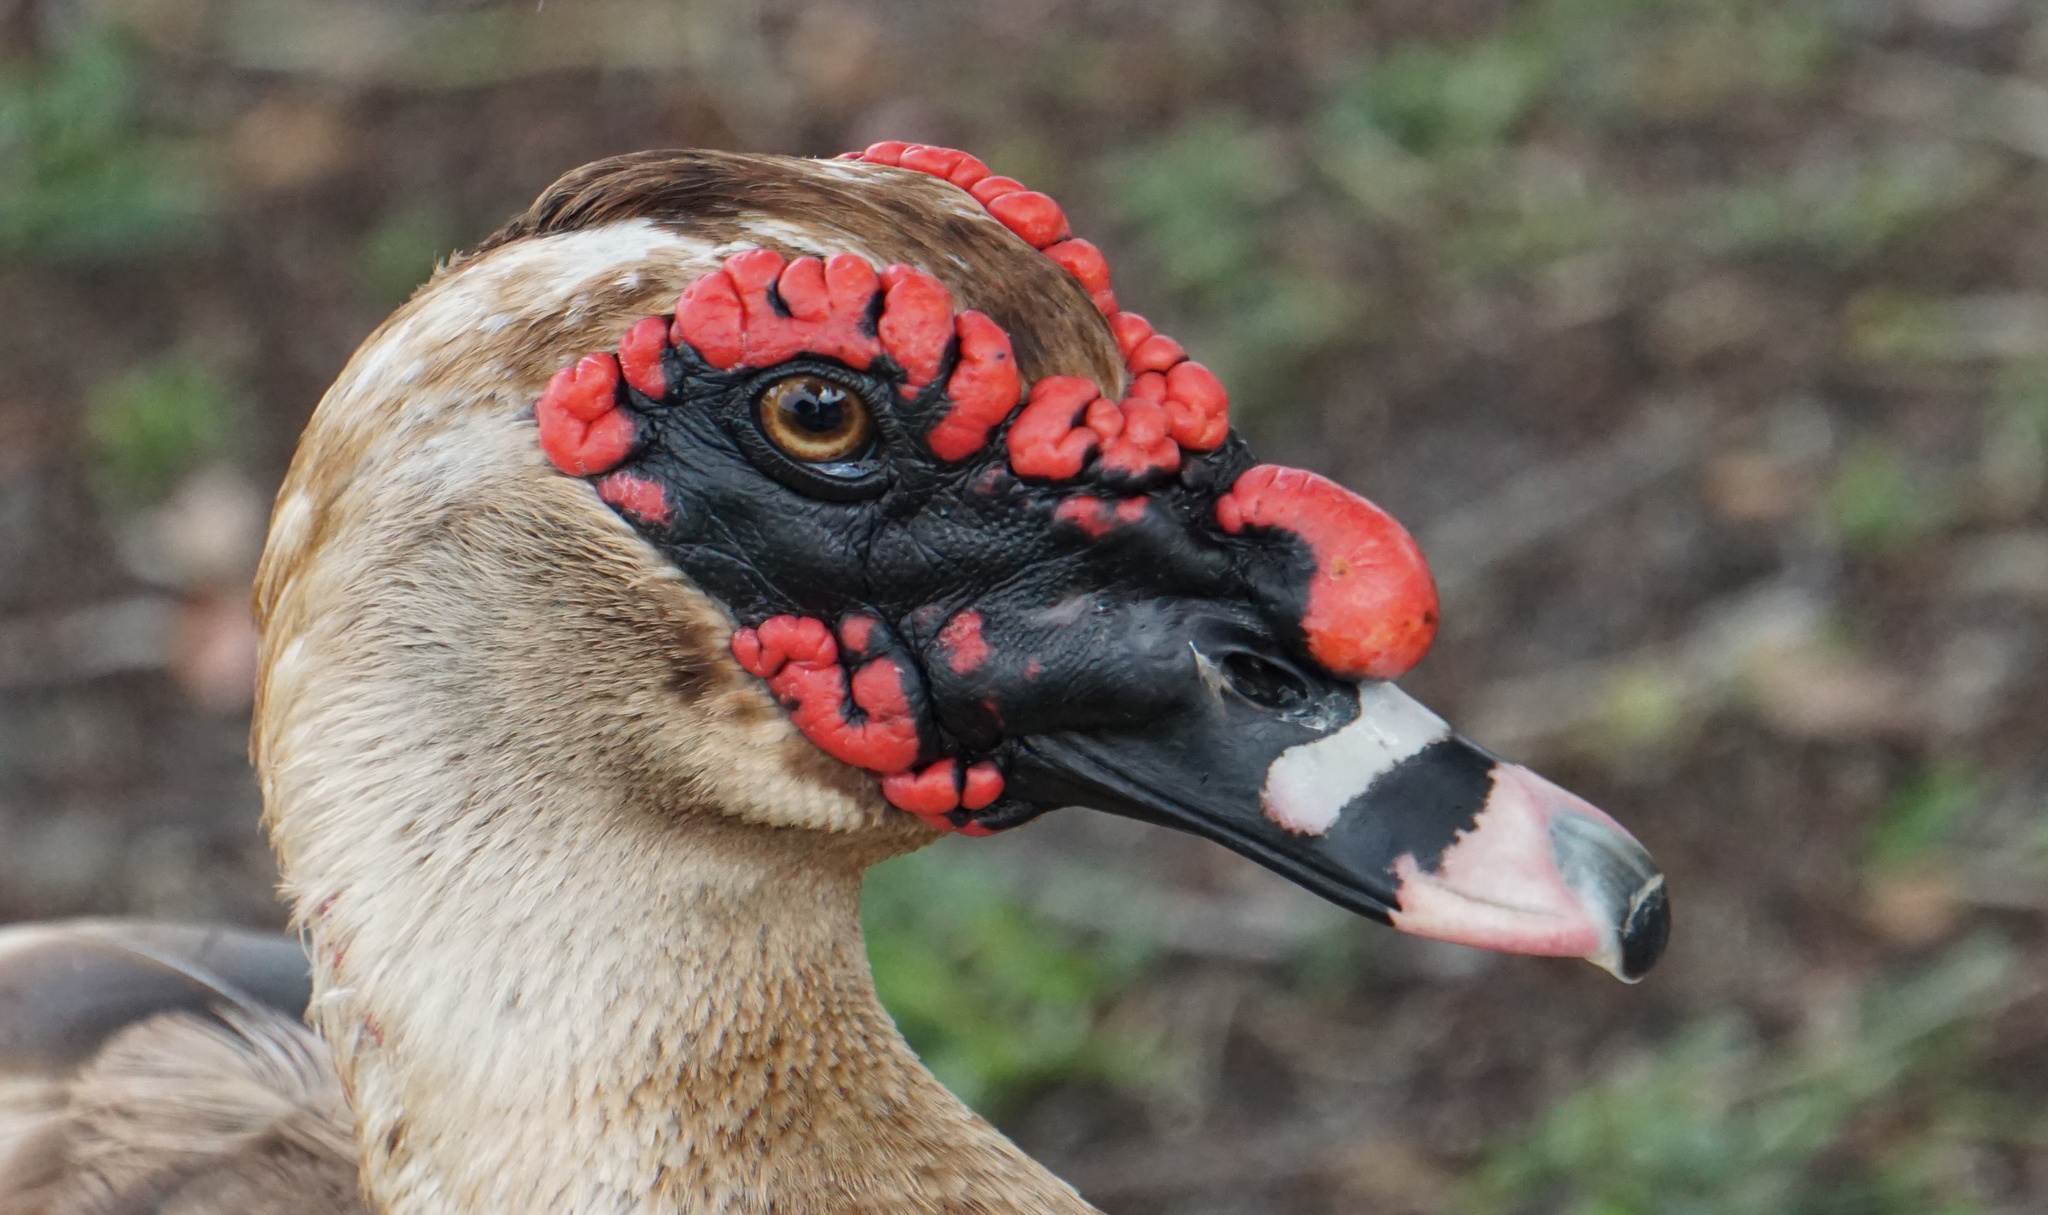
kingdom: Animalia
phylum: Chordata
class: Aves
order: Anseriformes
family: Anatidae
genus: Cairina
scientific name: Cairina moschata
